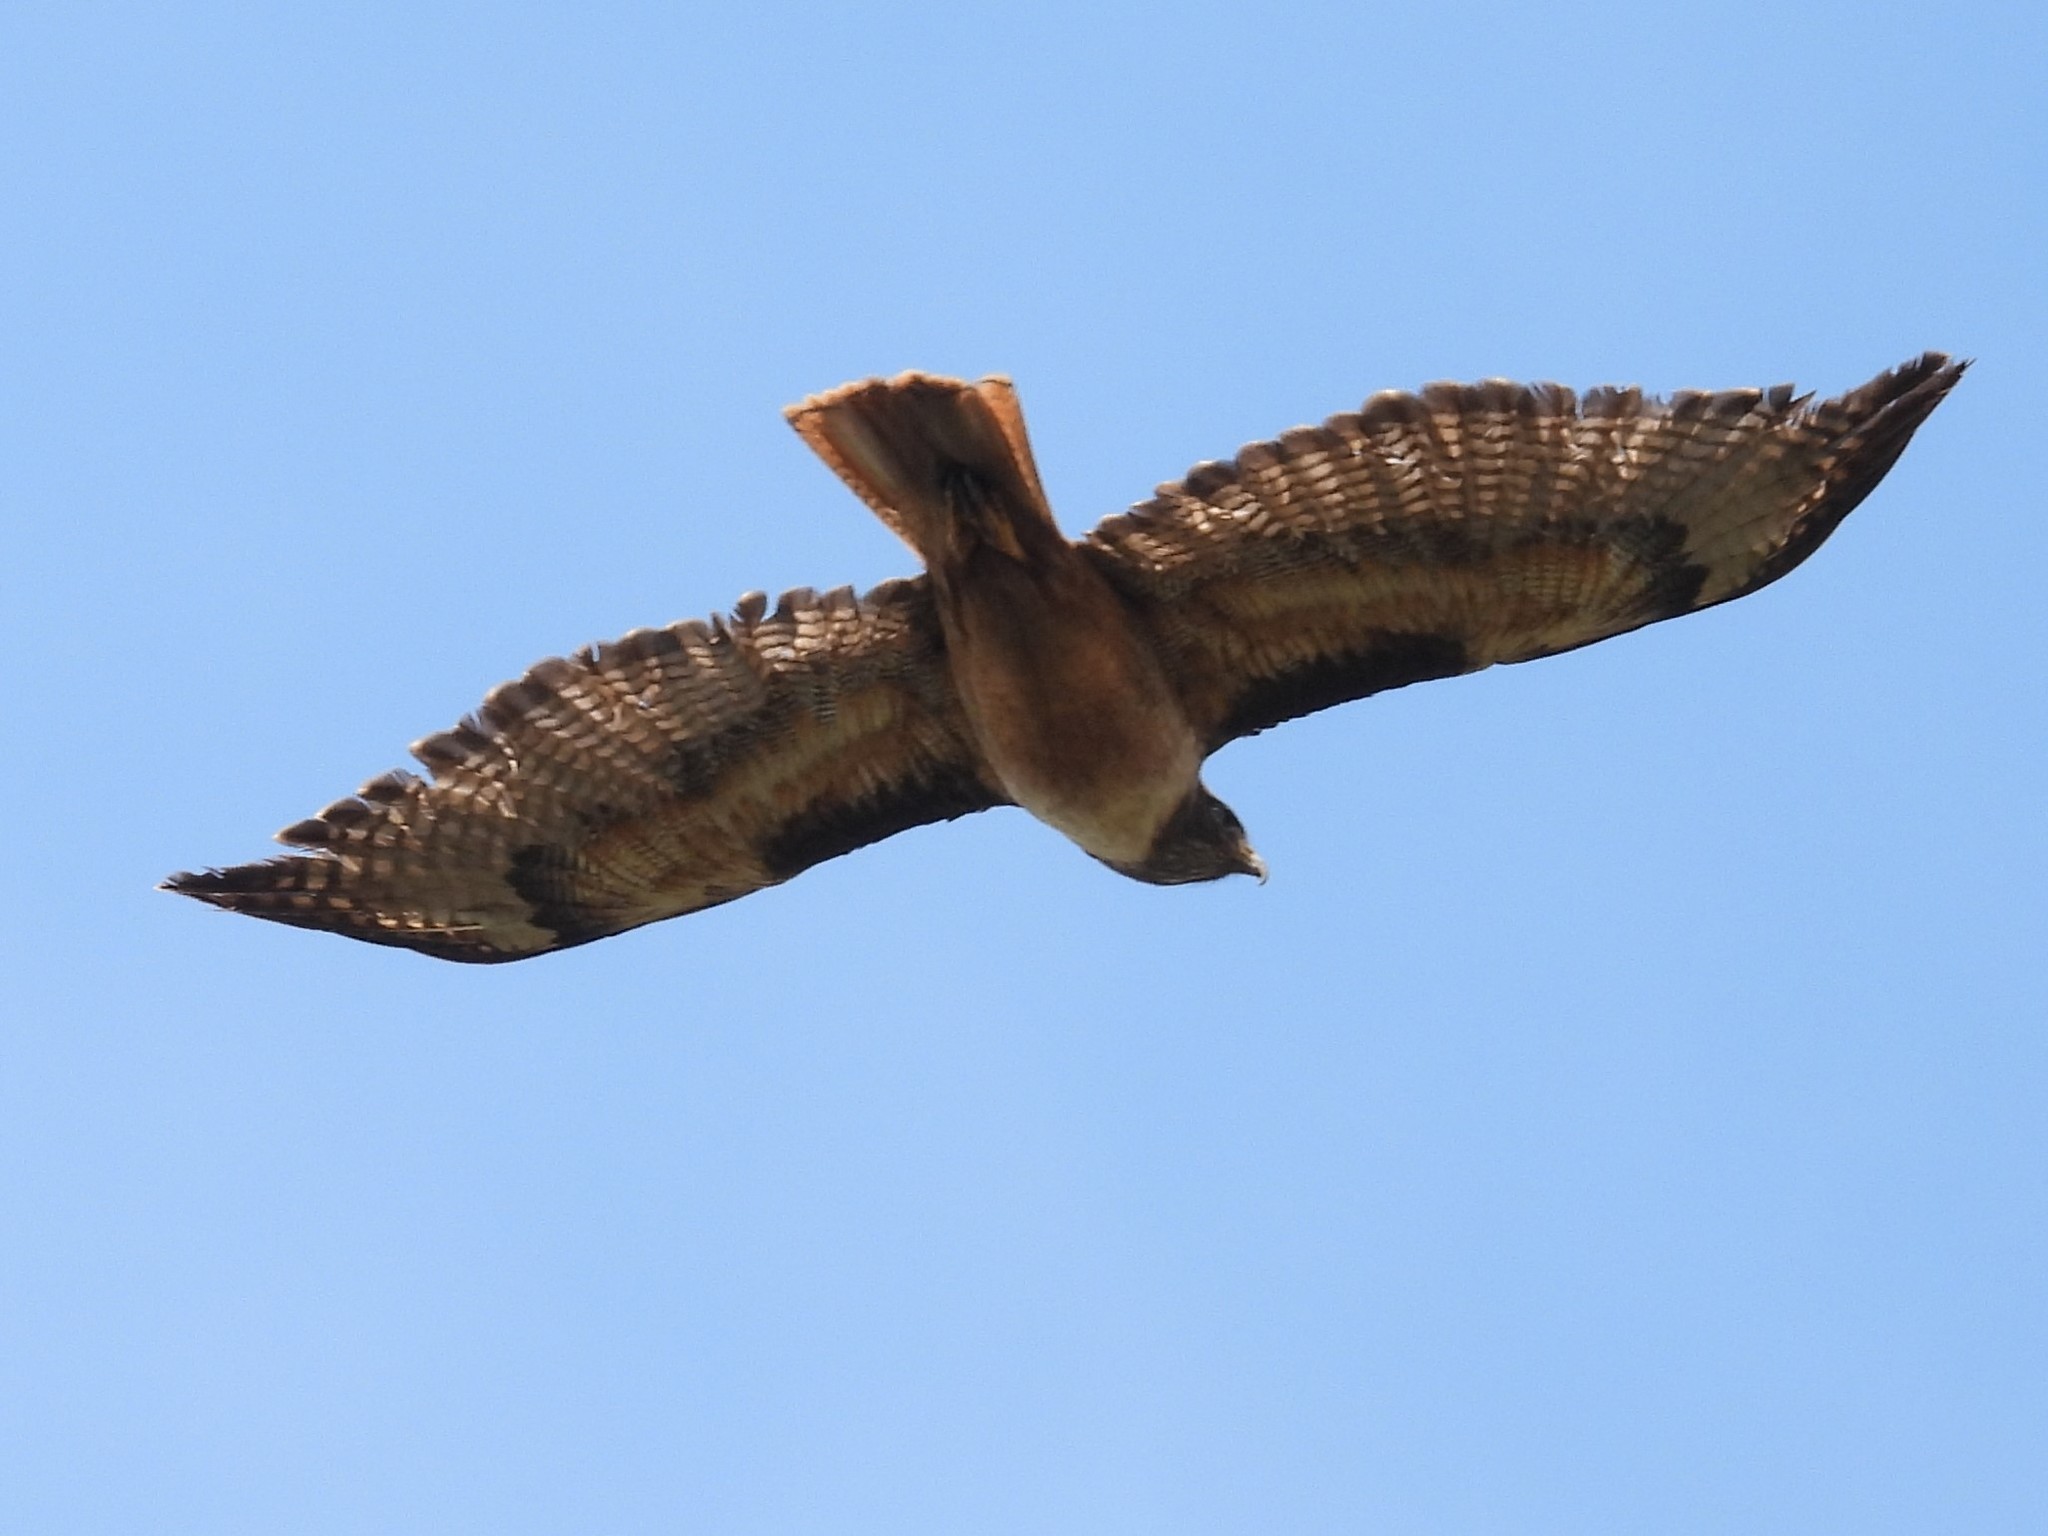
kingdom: Animalia
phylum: Chordata
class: Aves
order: Accipitriformes
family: Accipitridae
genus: Buteo
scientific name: Buteo jamaicensis
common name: Red-tailed hawk
